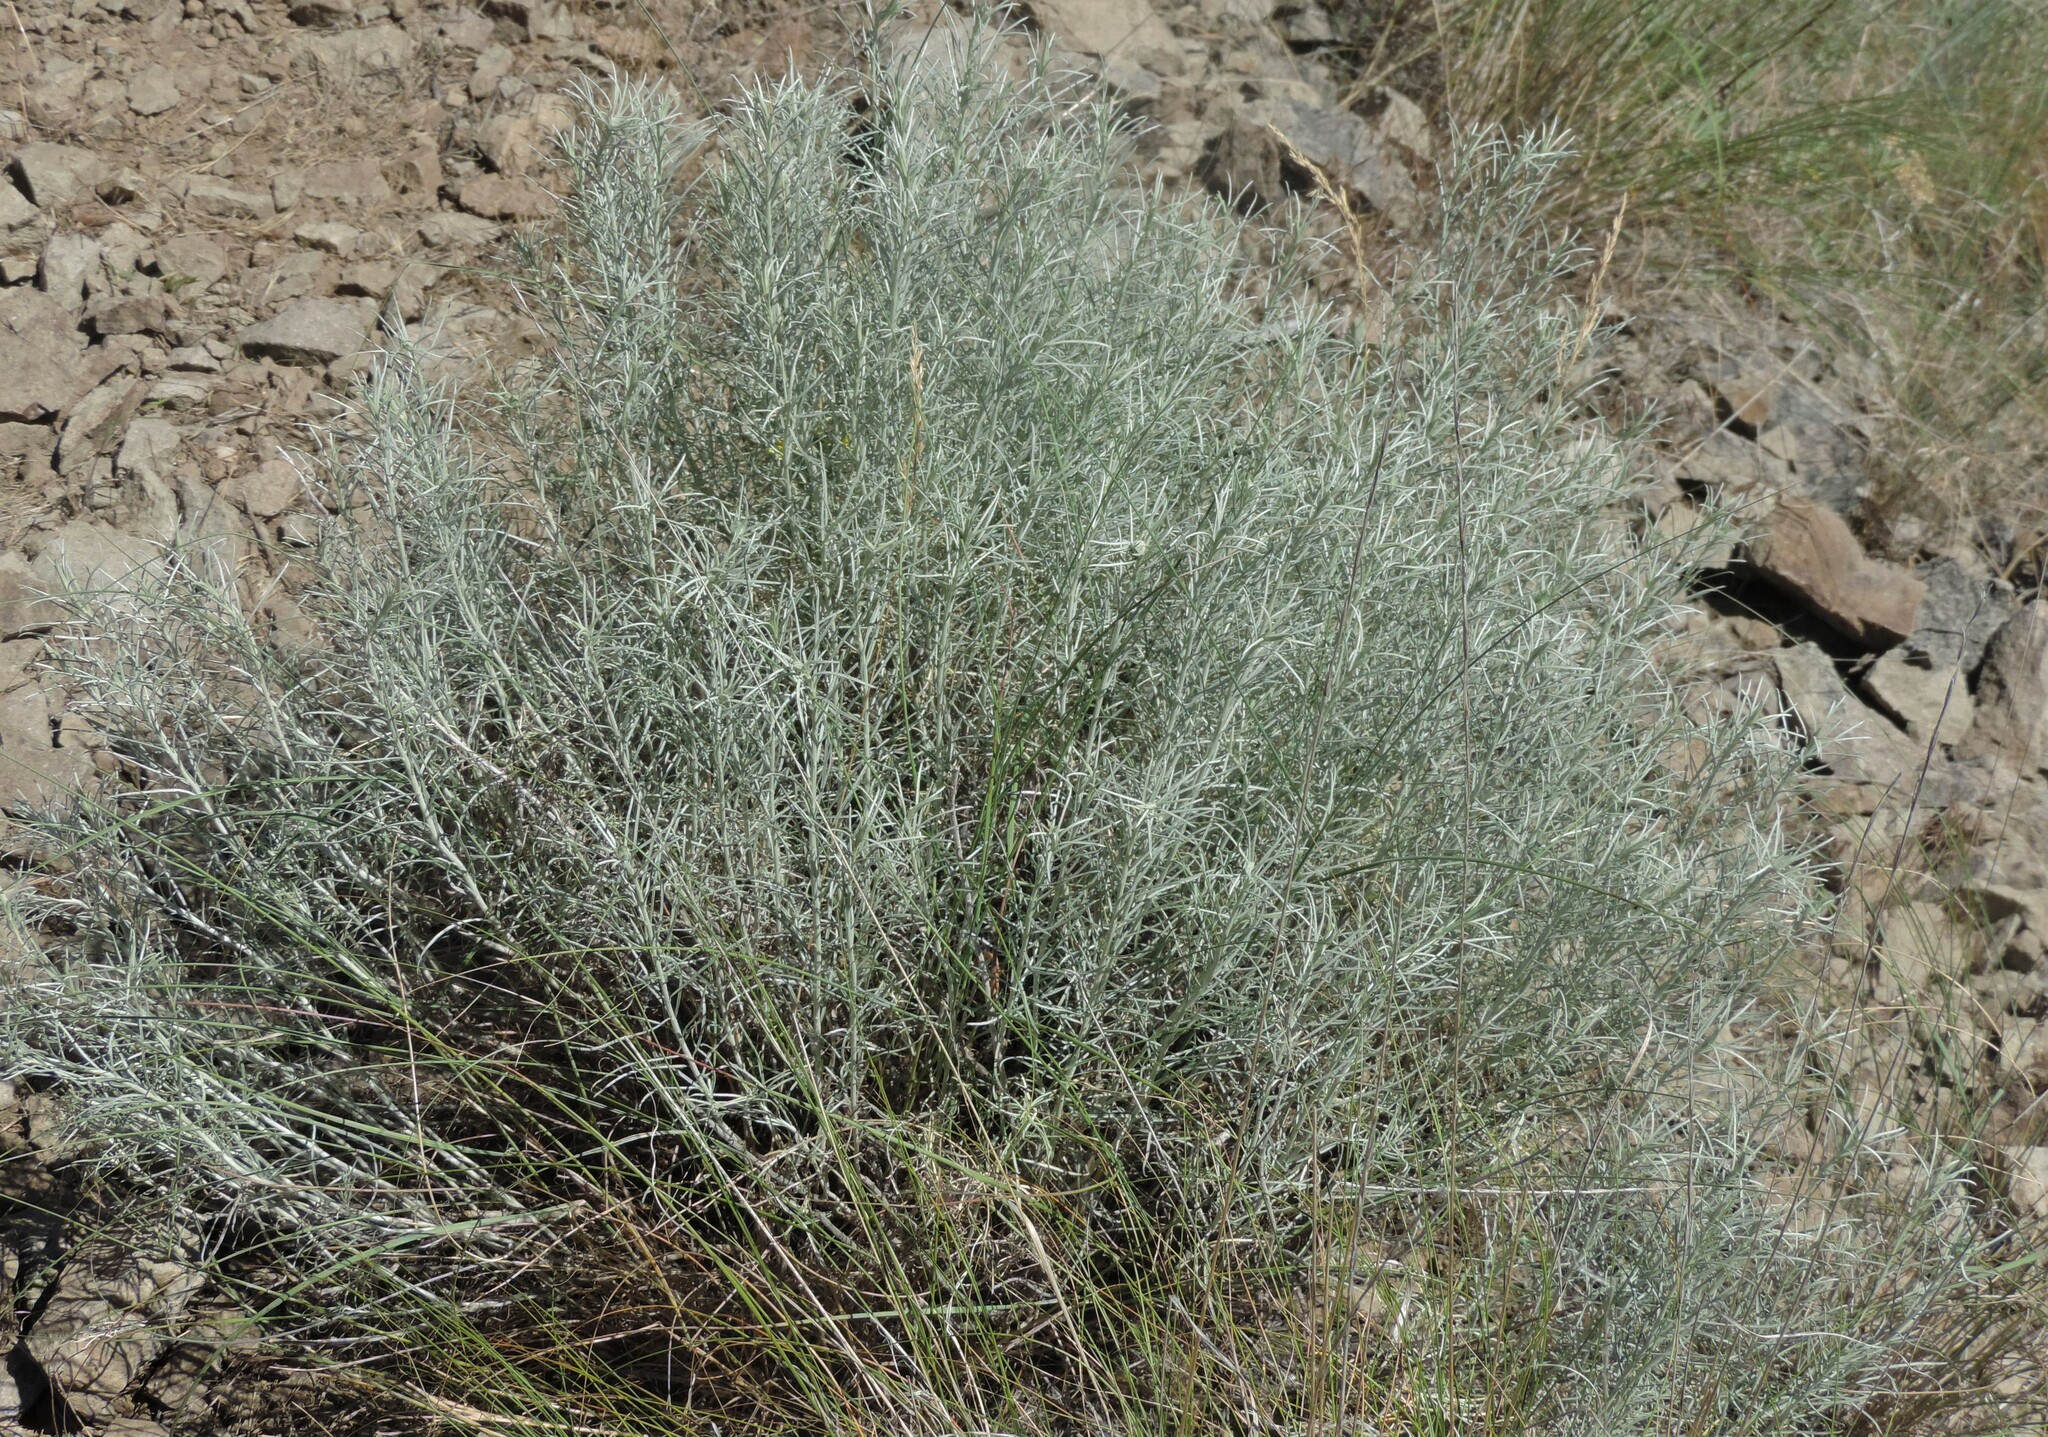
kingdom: Plantae
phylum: Tracheophyta
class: Magnoliopsida
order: Asterales
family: Asteraceae
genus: Ericameria
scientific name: Ericameria nauseosa
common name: Rubber rabbitbrush
